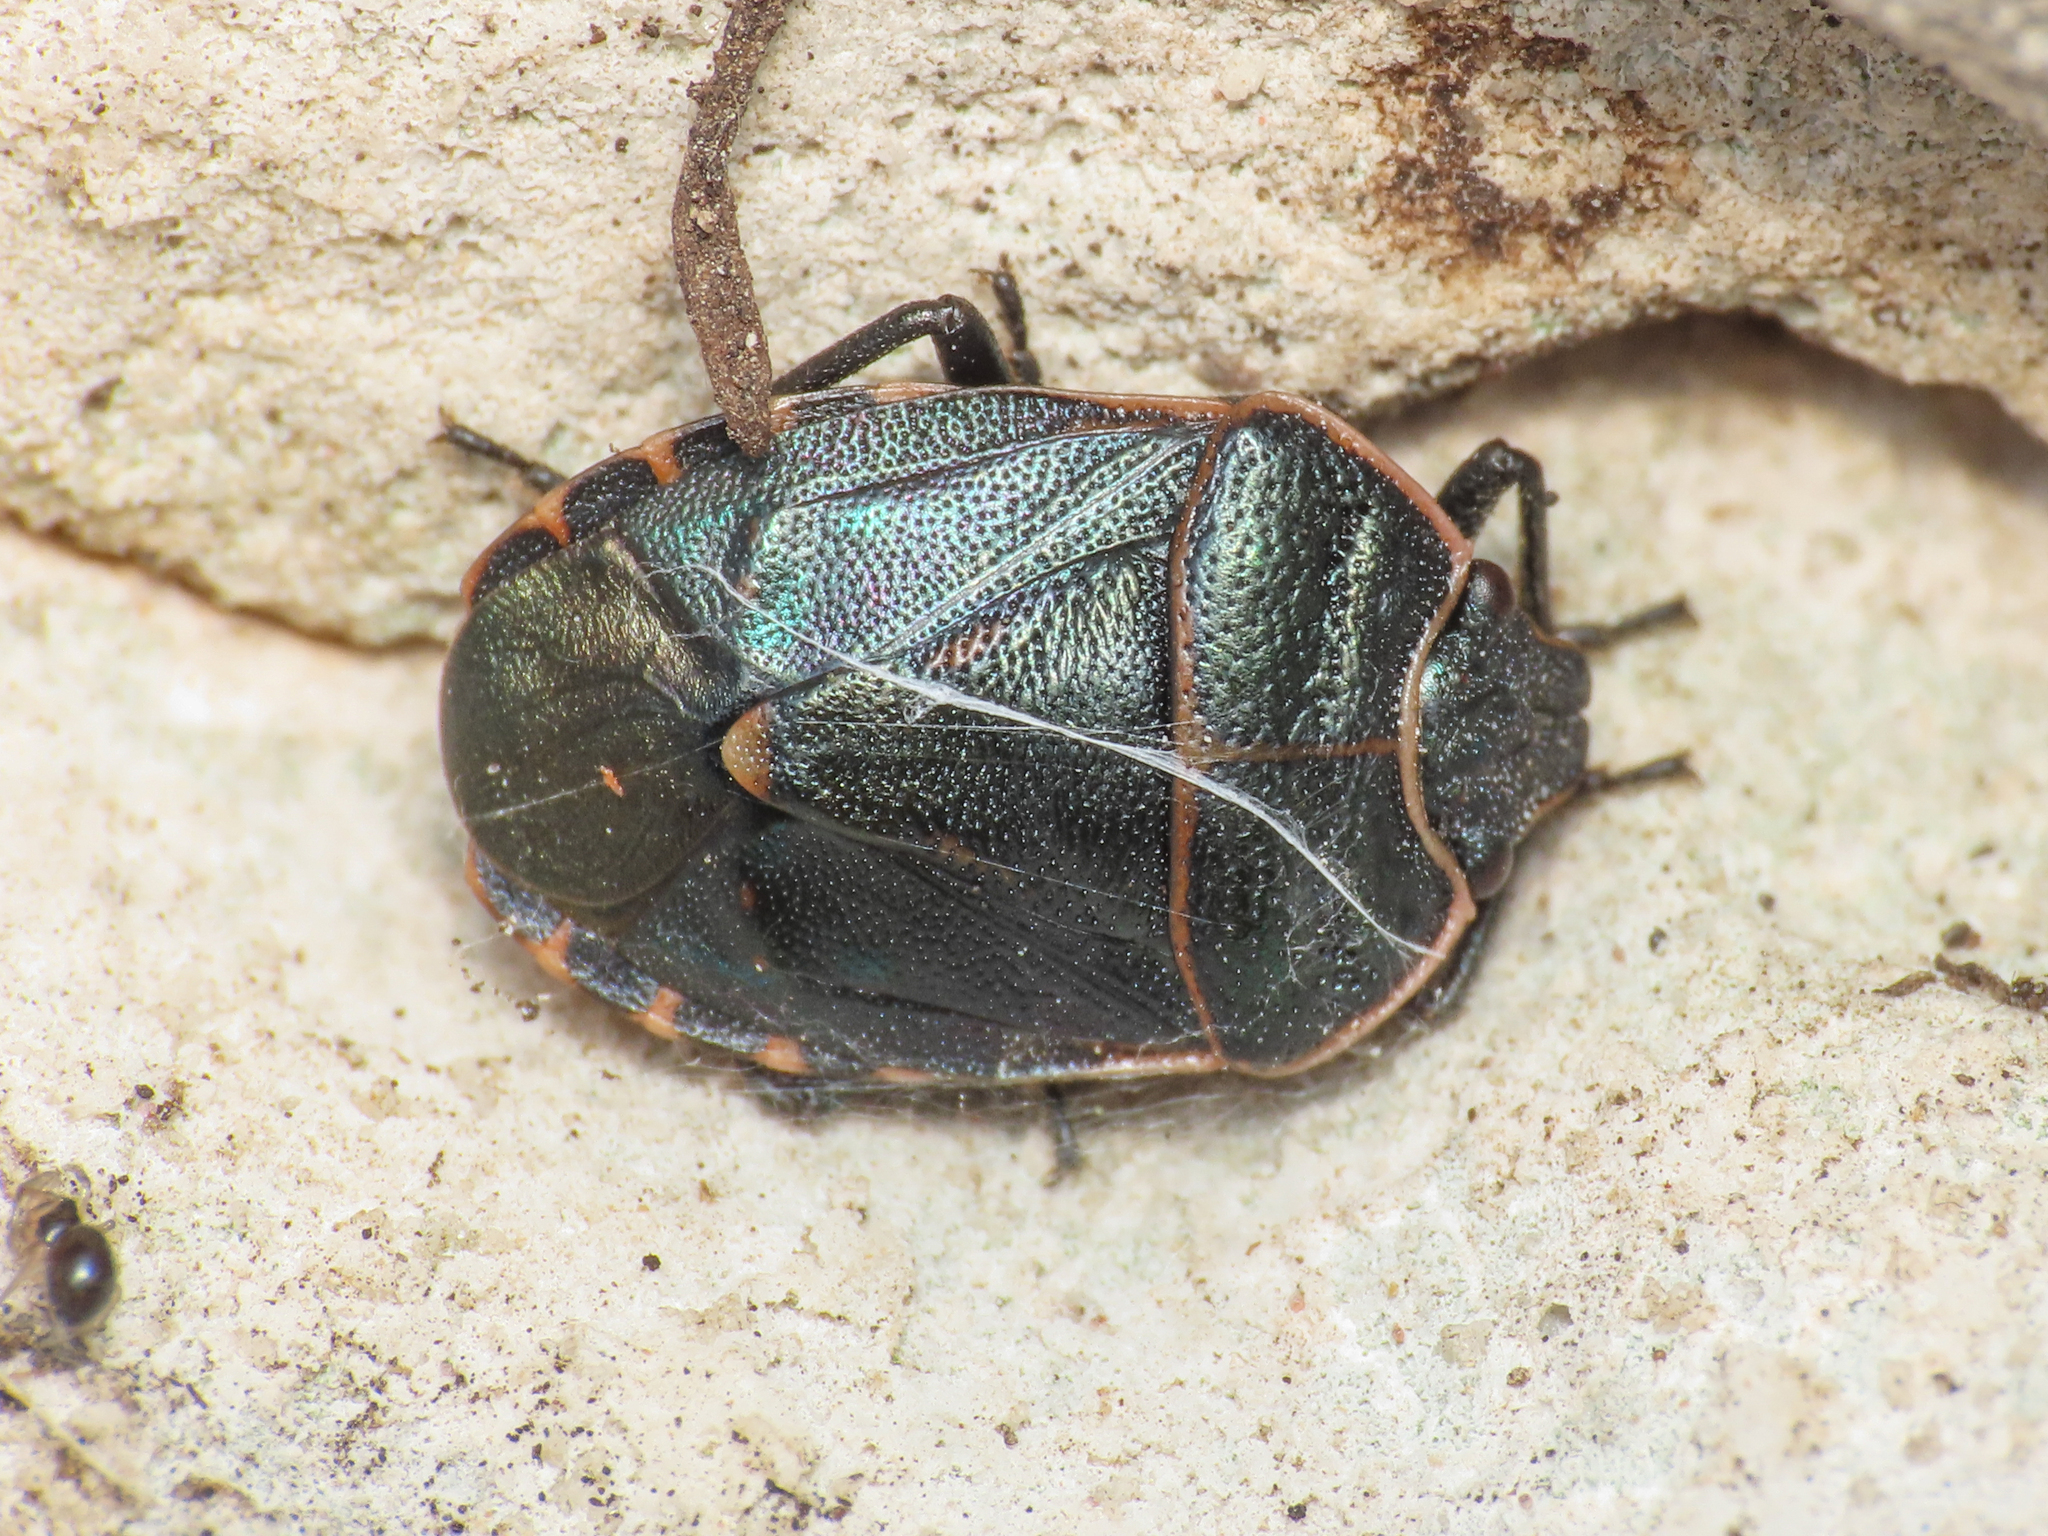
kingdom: Animalia
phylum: Arthropoda
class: Insecta
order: Hemiptera
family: Pentatomidae
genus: Eurydema
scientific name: Eurydema rotundicollis
